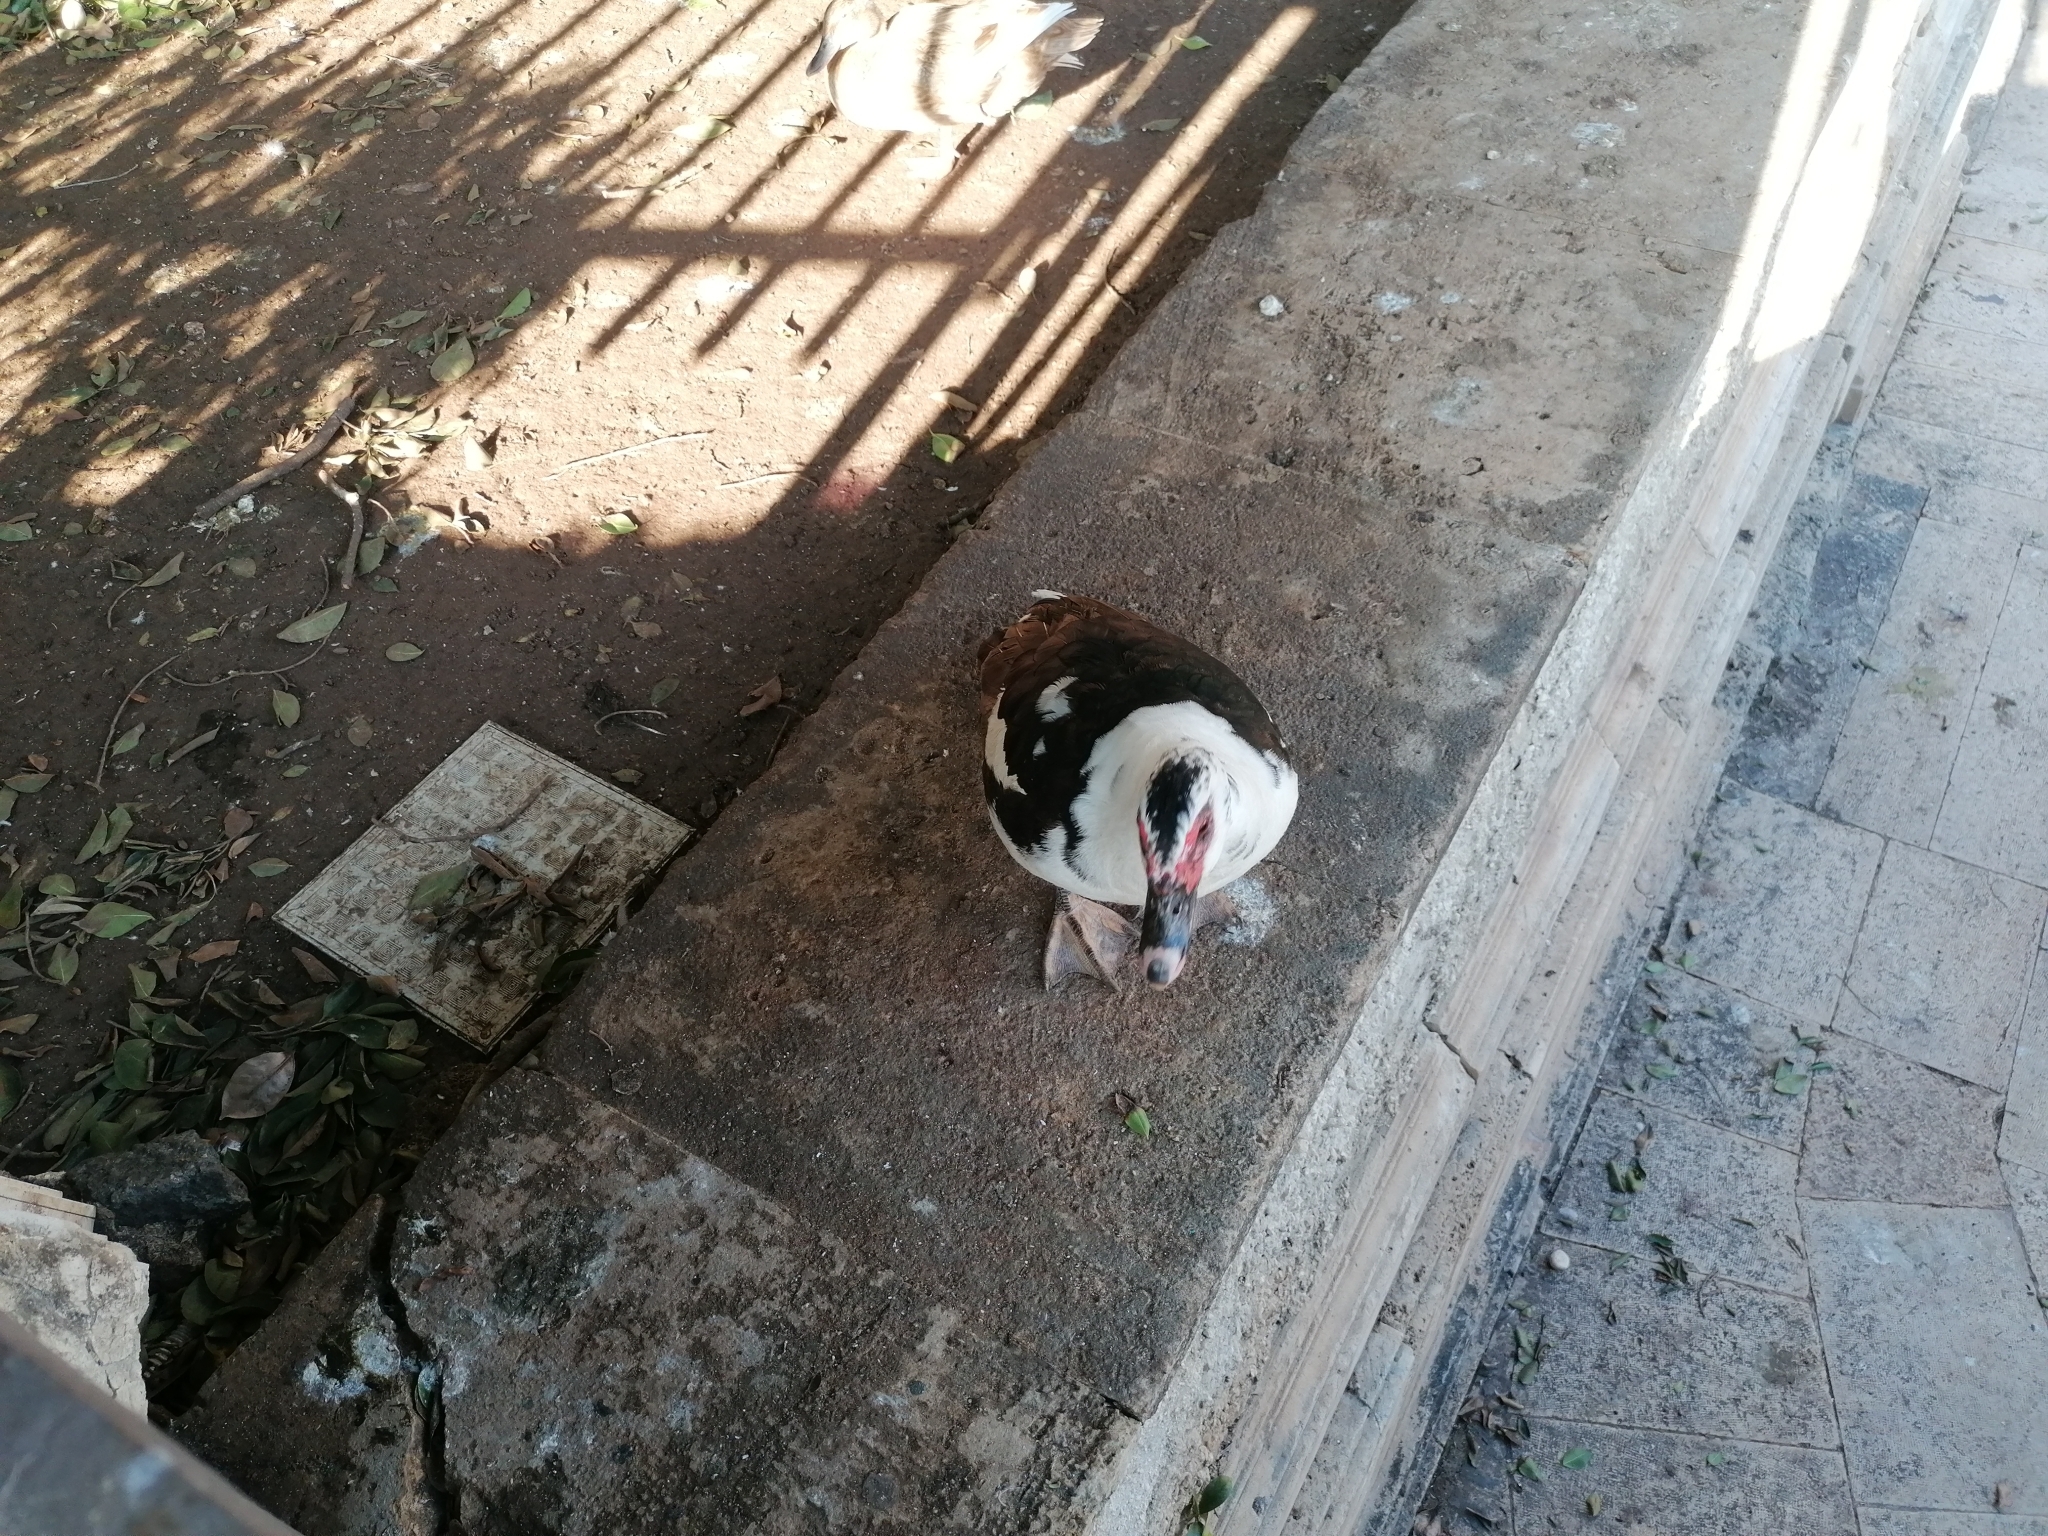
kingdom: Animalia
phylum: Chordata
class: Aves
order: Anseriformes
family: Anatidae
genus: Cairina
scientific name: Cairina moschata
